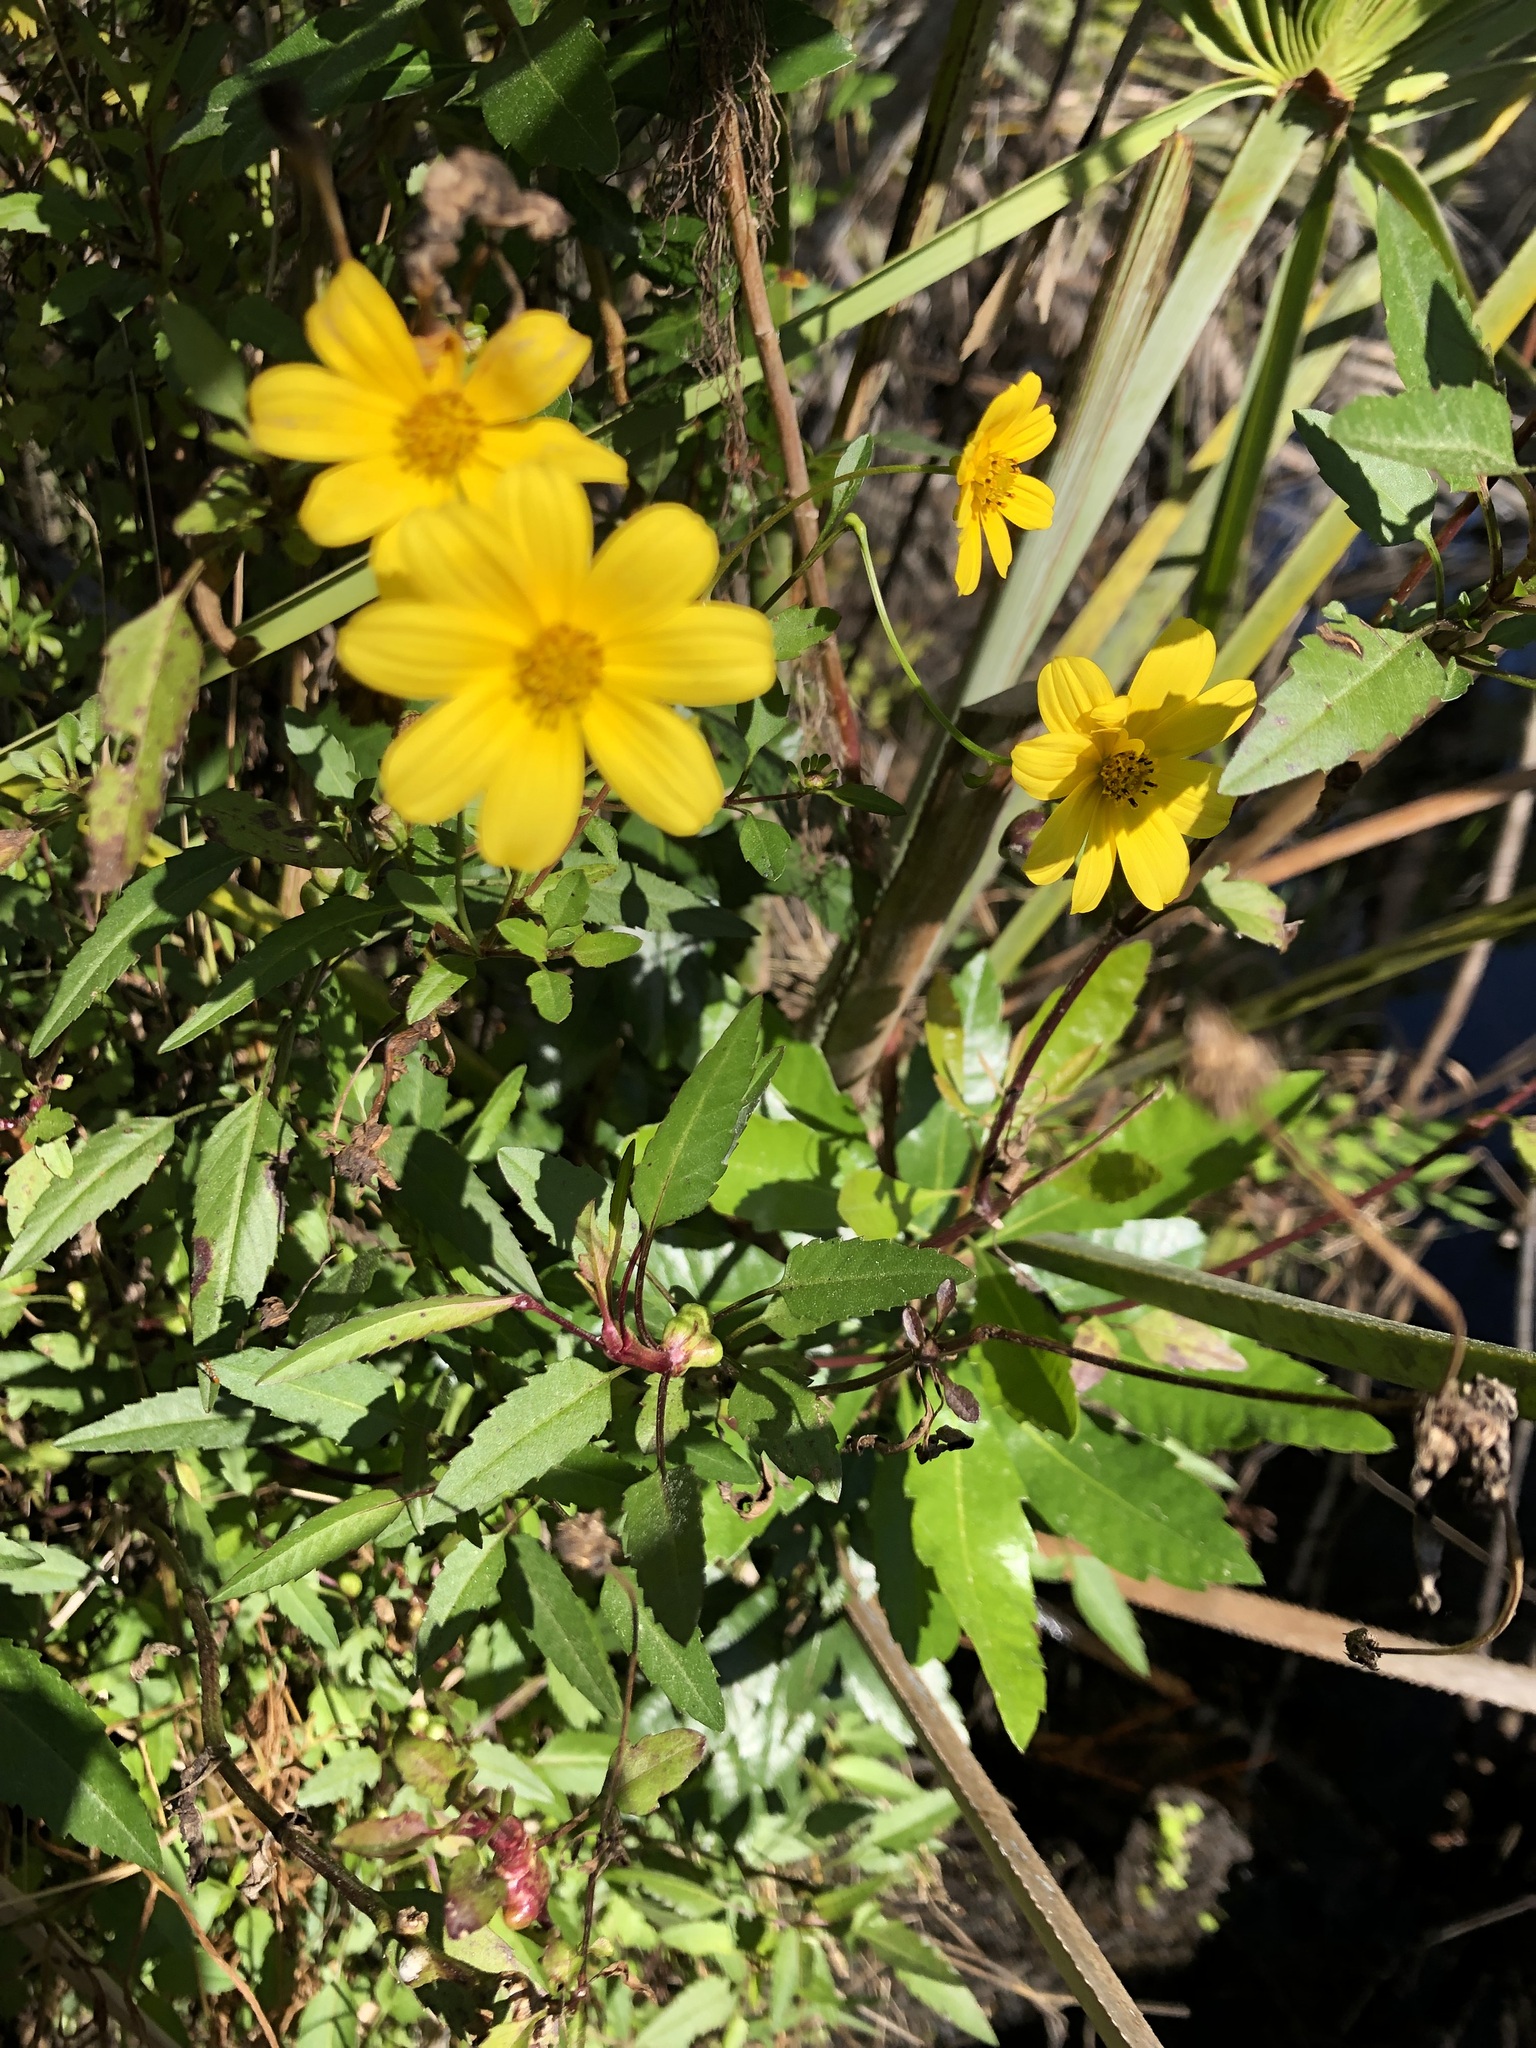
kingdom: Plantae
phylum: Tracheophyta
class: Magnoliopsida
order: Asterales
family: Asteraceae
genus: Bidens
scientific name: Bidens mitis
